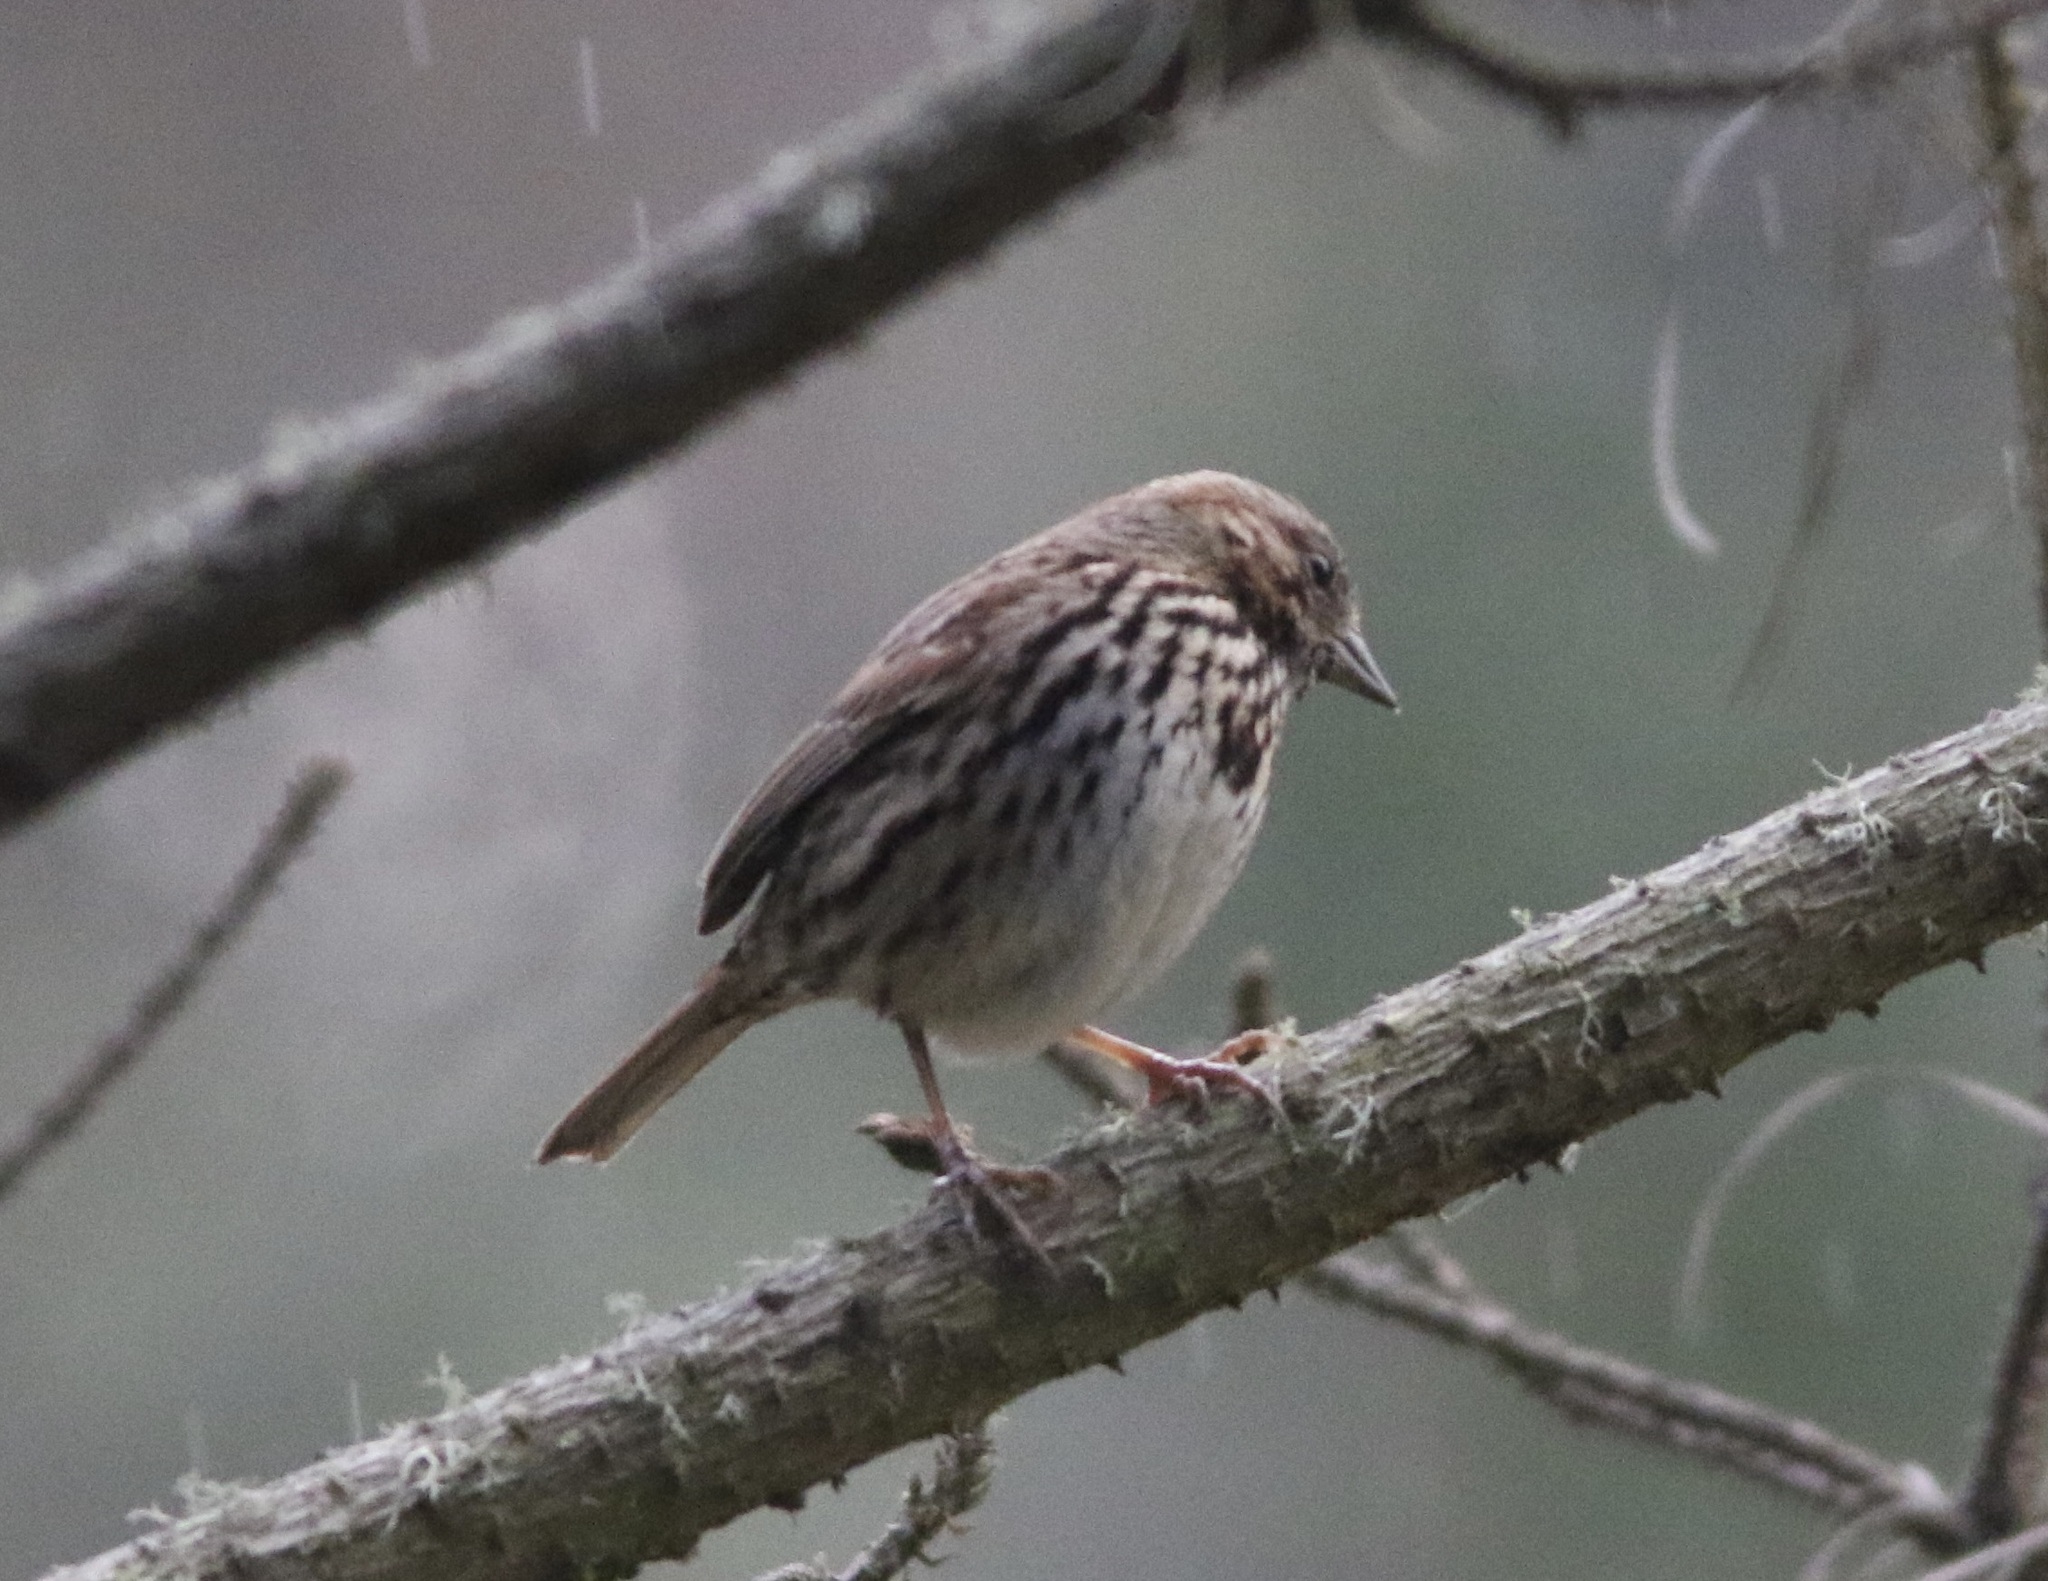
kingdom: Animalia
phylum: Chordata
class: Aves
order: Passeriformes
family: Passerellidae
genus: Melospiza
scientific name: Melospiza melodia
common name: Song sparrow
